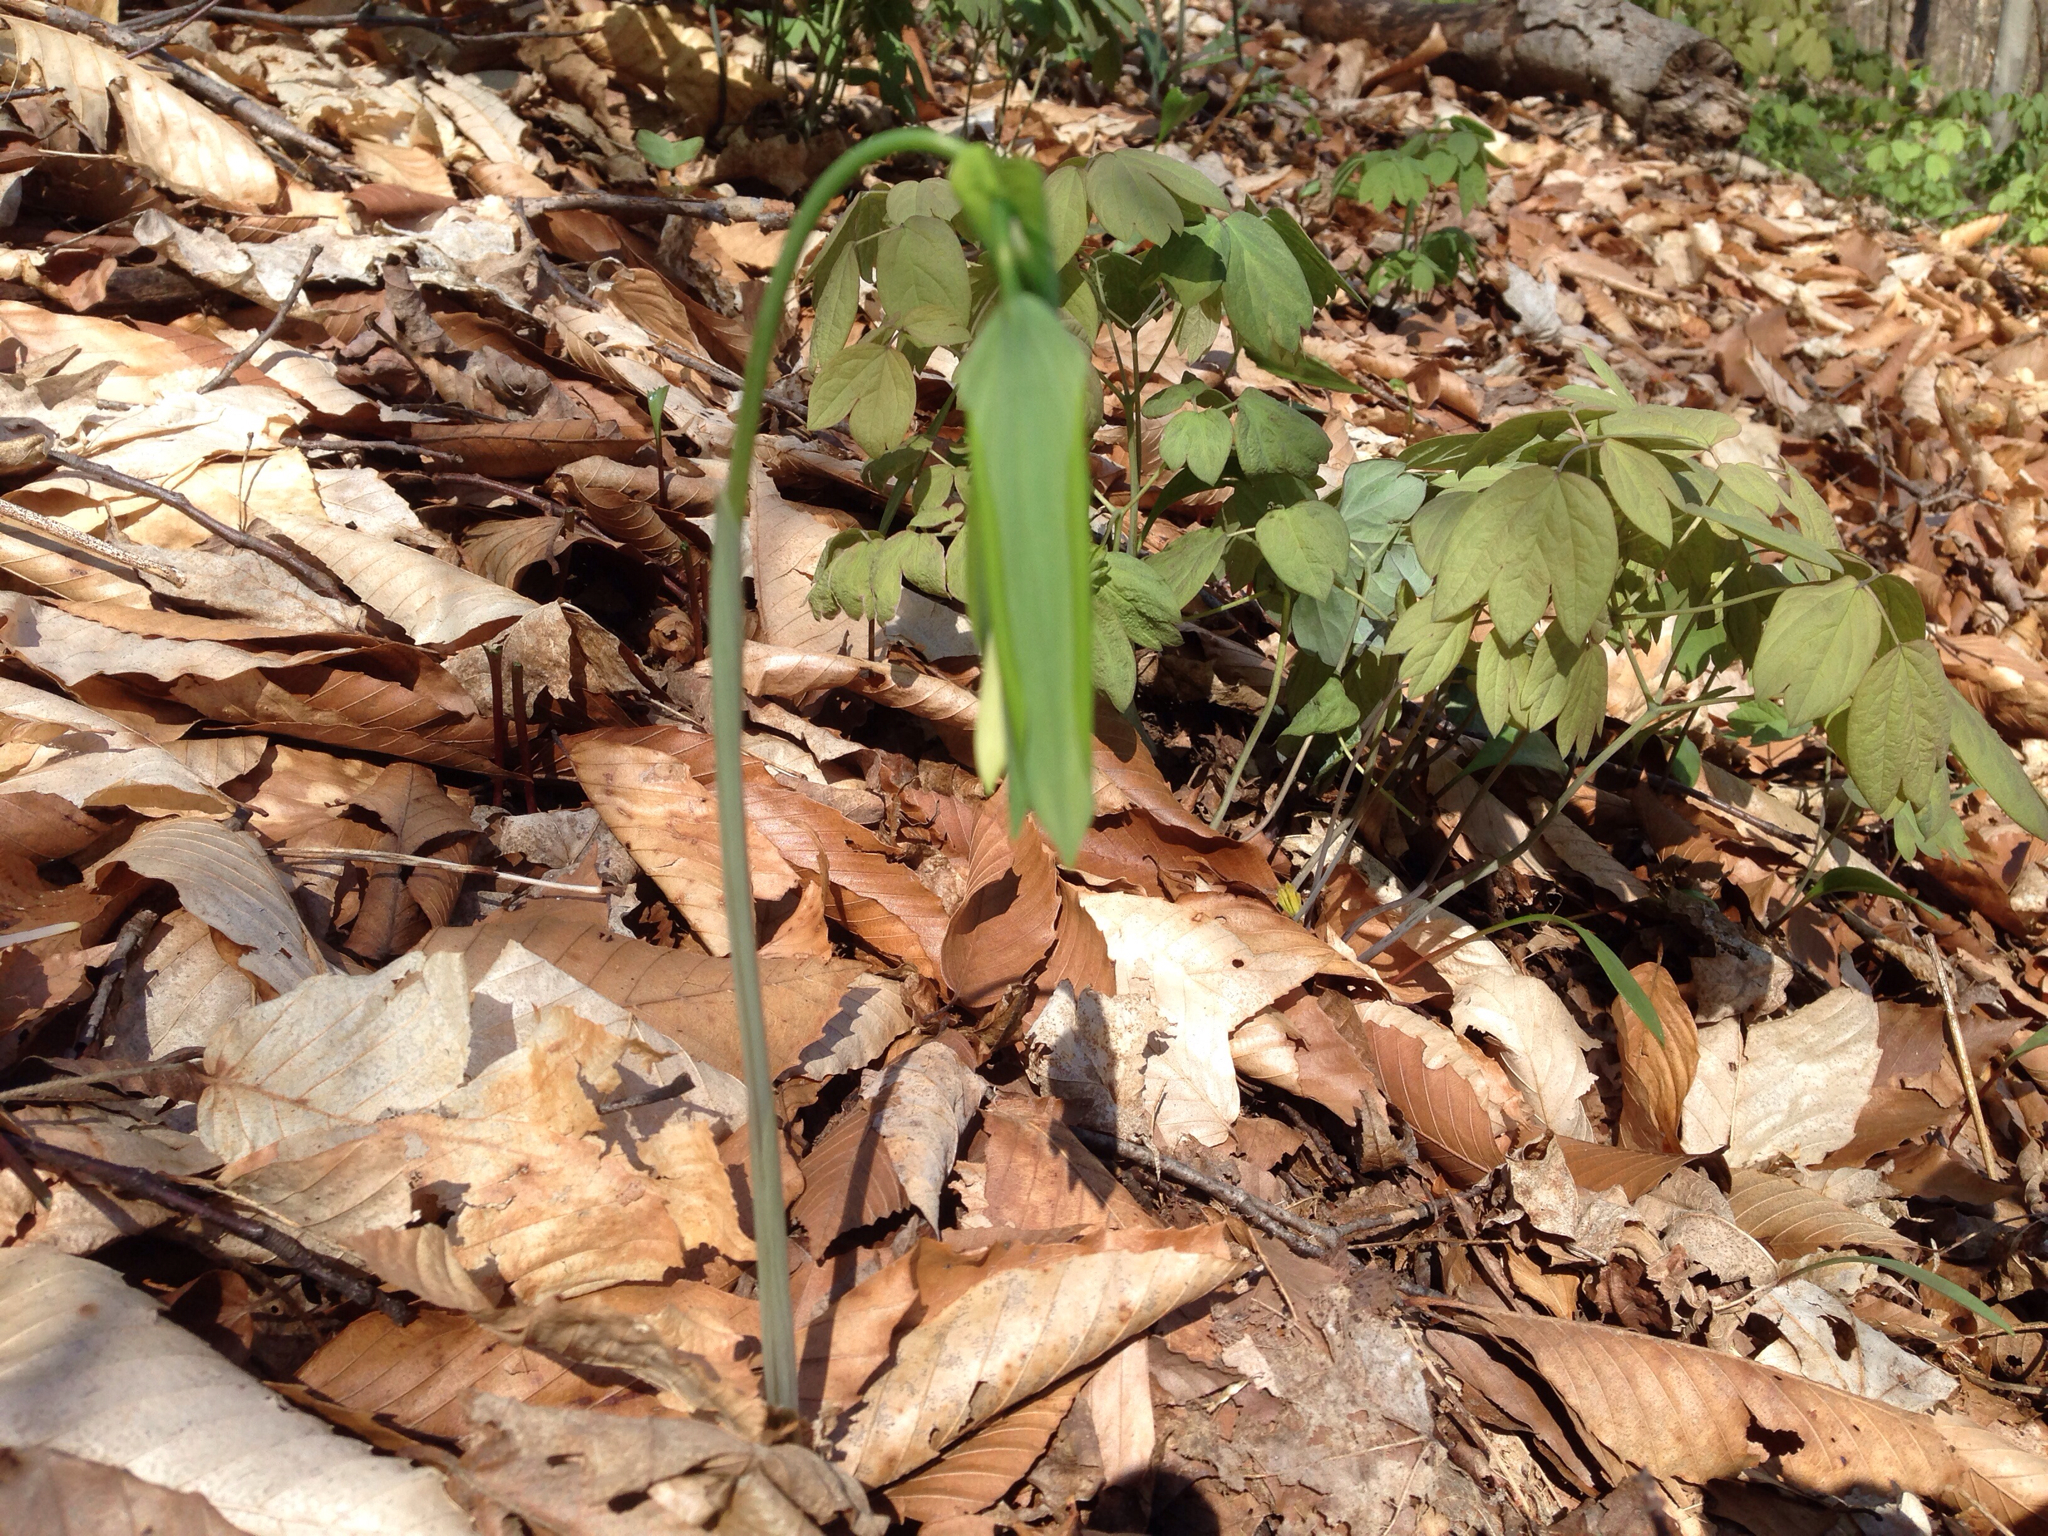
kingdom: Plantae
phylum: Tracheophyta
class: Liliopsida
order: Liliales
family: Colchicaceae
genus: Uvularia
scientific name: Uvularia grandiflora
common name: Bellwort
